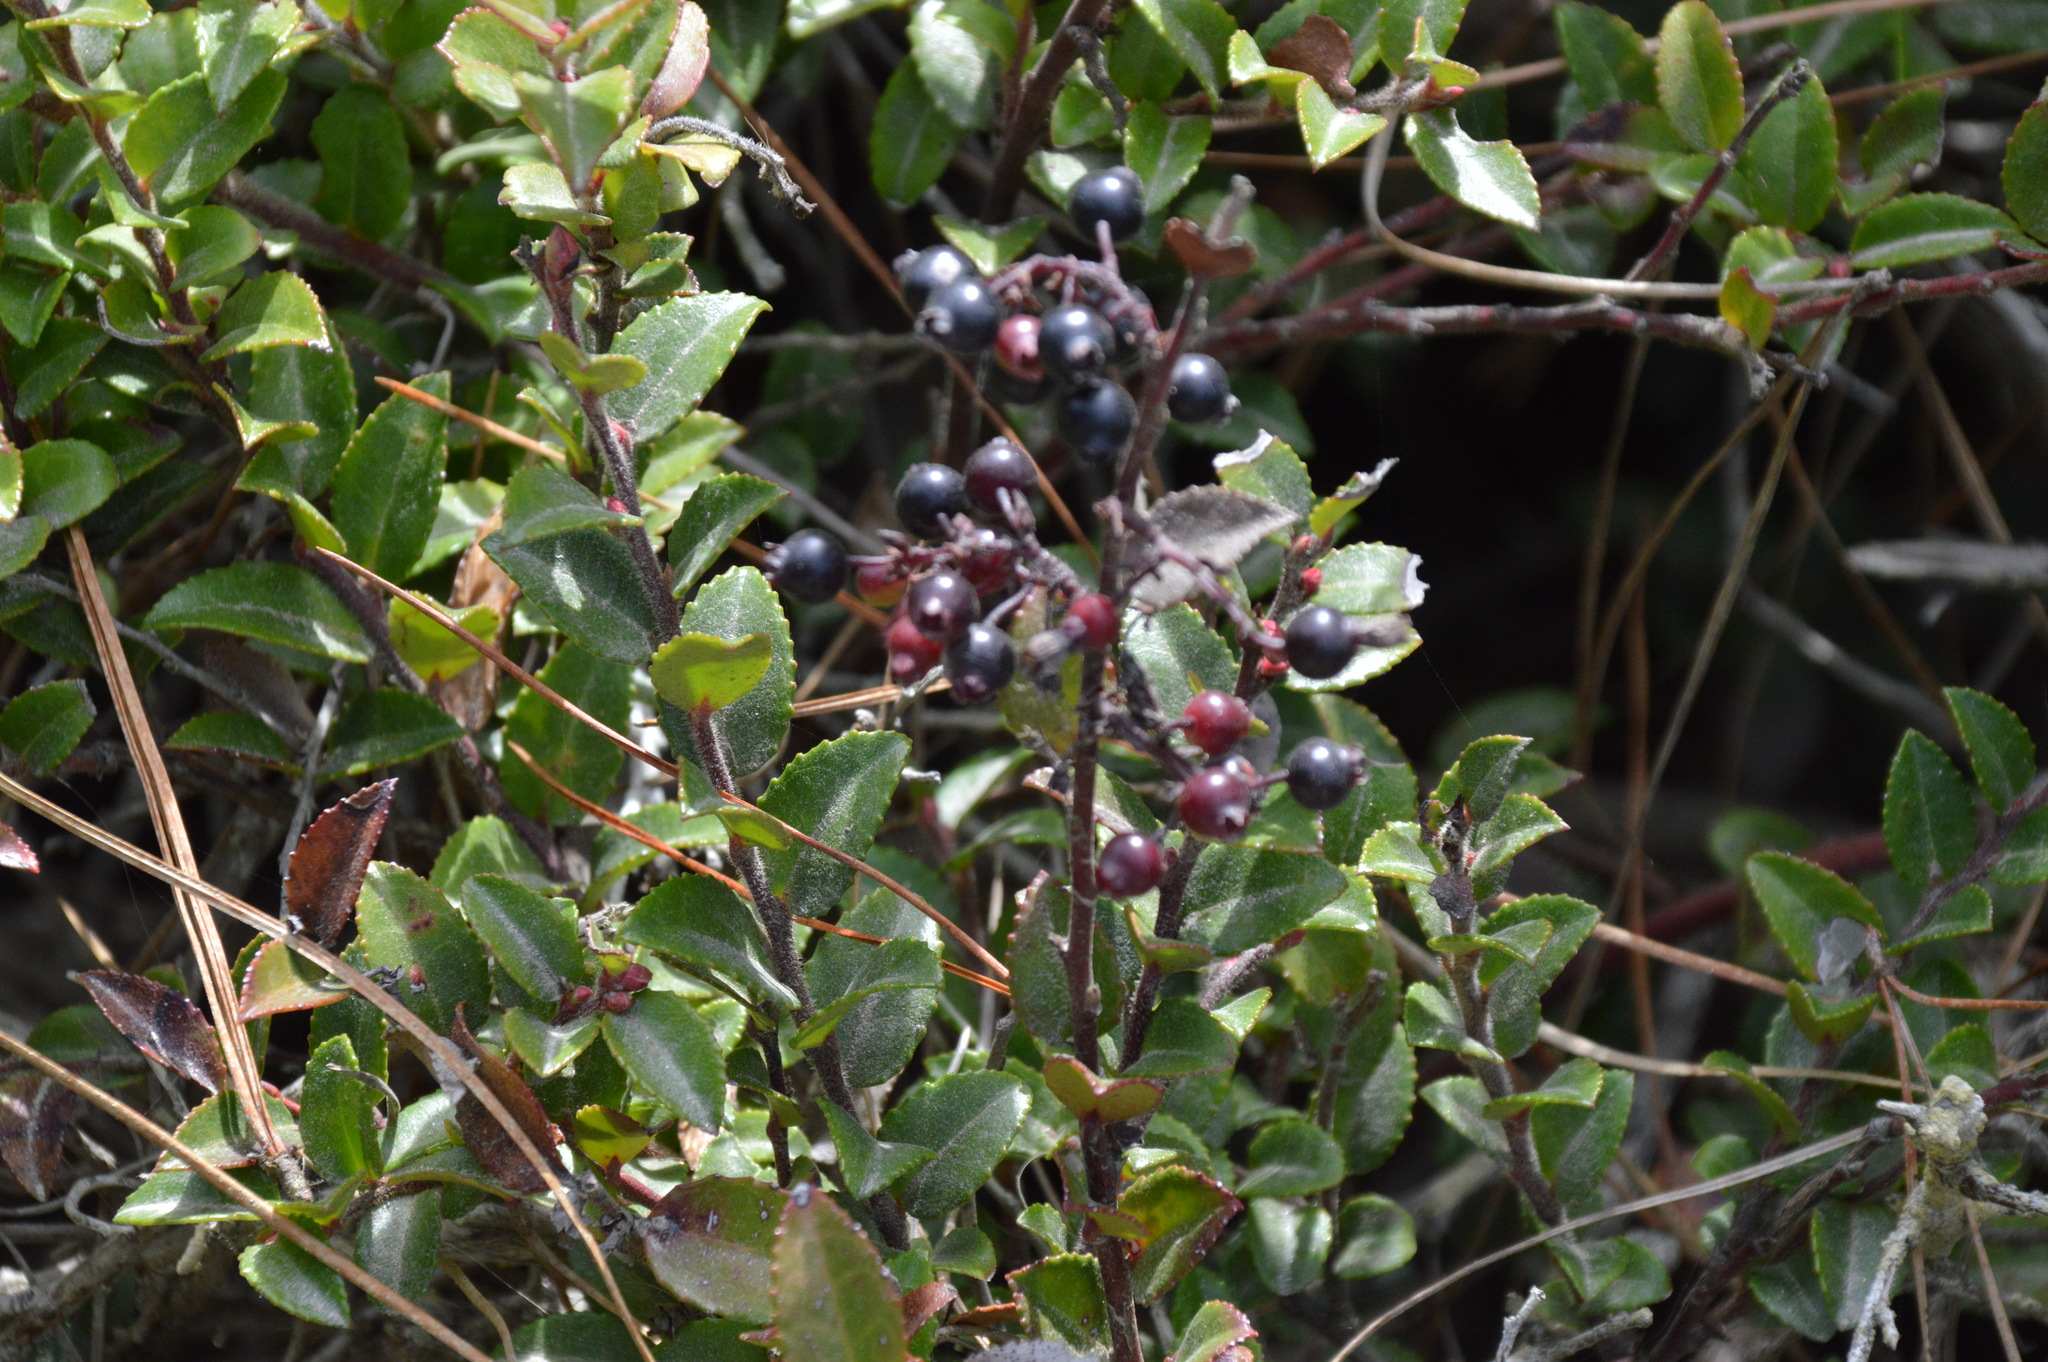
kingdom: Plantae
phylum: Tracheophyta
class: Magnoliopsida
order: Ericales
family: Ericaceae
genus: Vaccinium
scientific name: Vaccinium ovatum
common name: California-huckleberry
